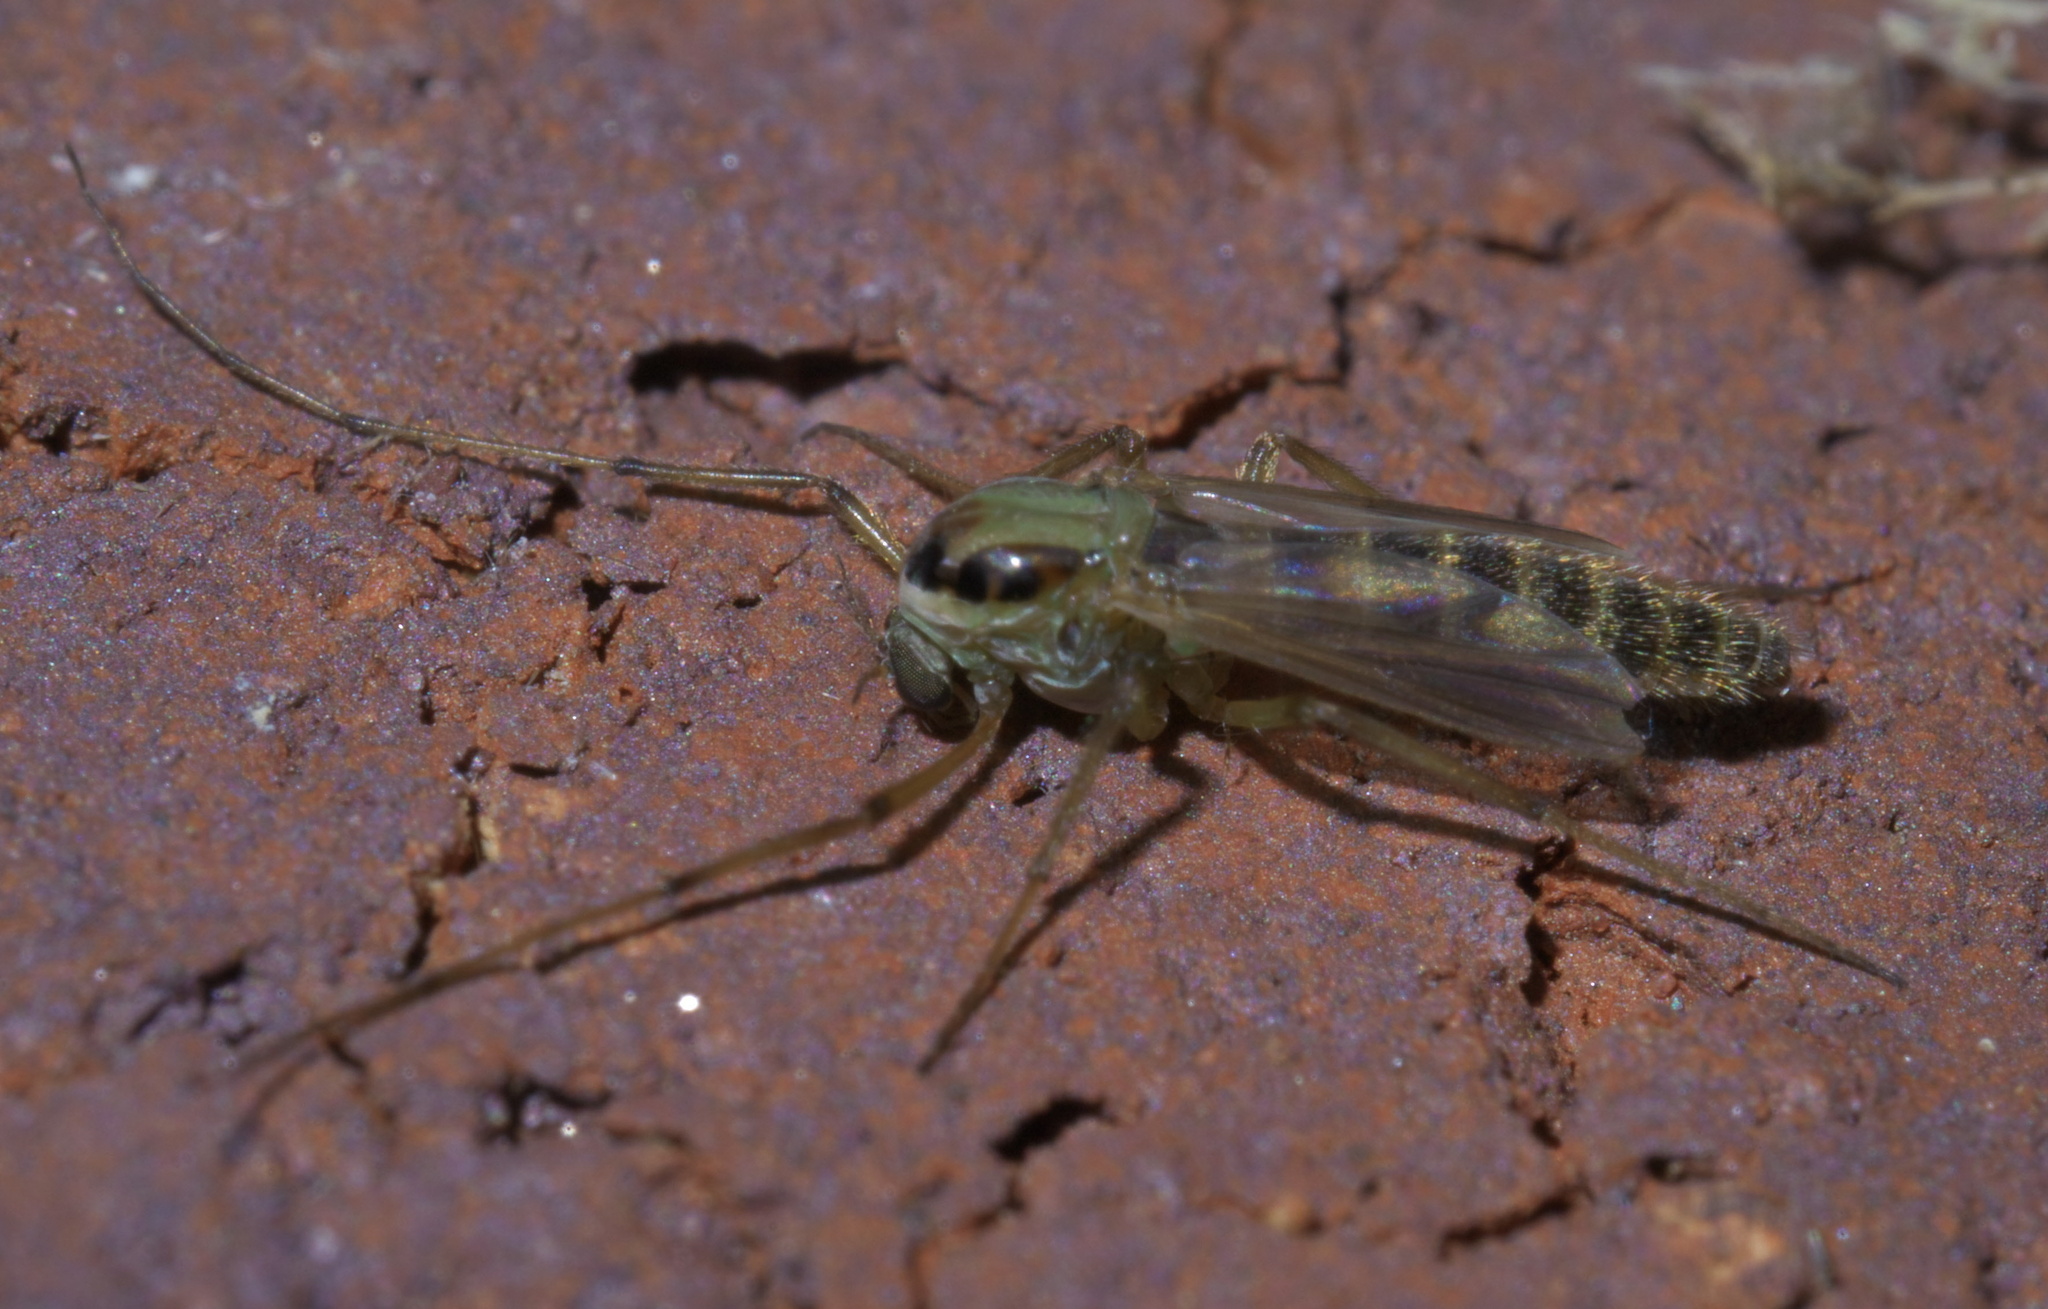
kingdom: Animalia
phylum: Arthropoda
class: Insecta
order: Diptera
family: Chironomidae
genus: Goeldichironomus
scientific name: Goeldichironomus carus
